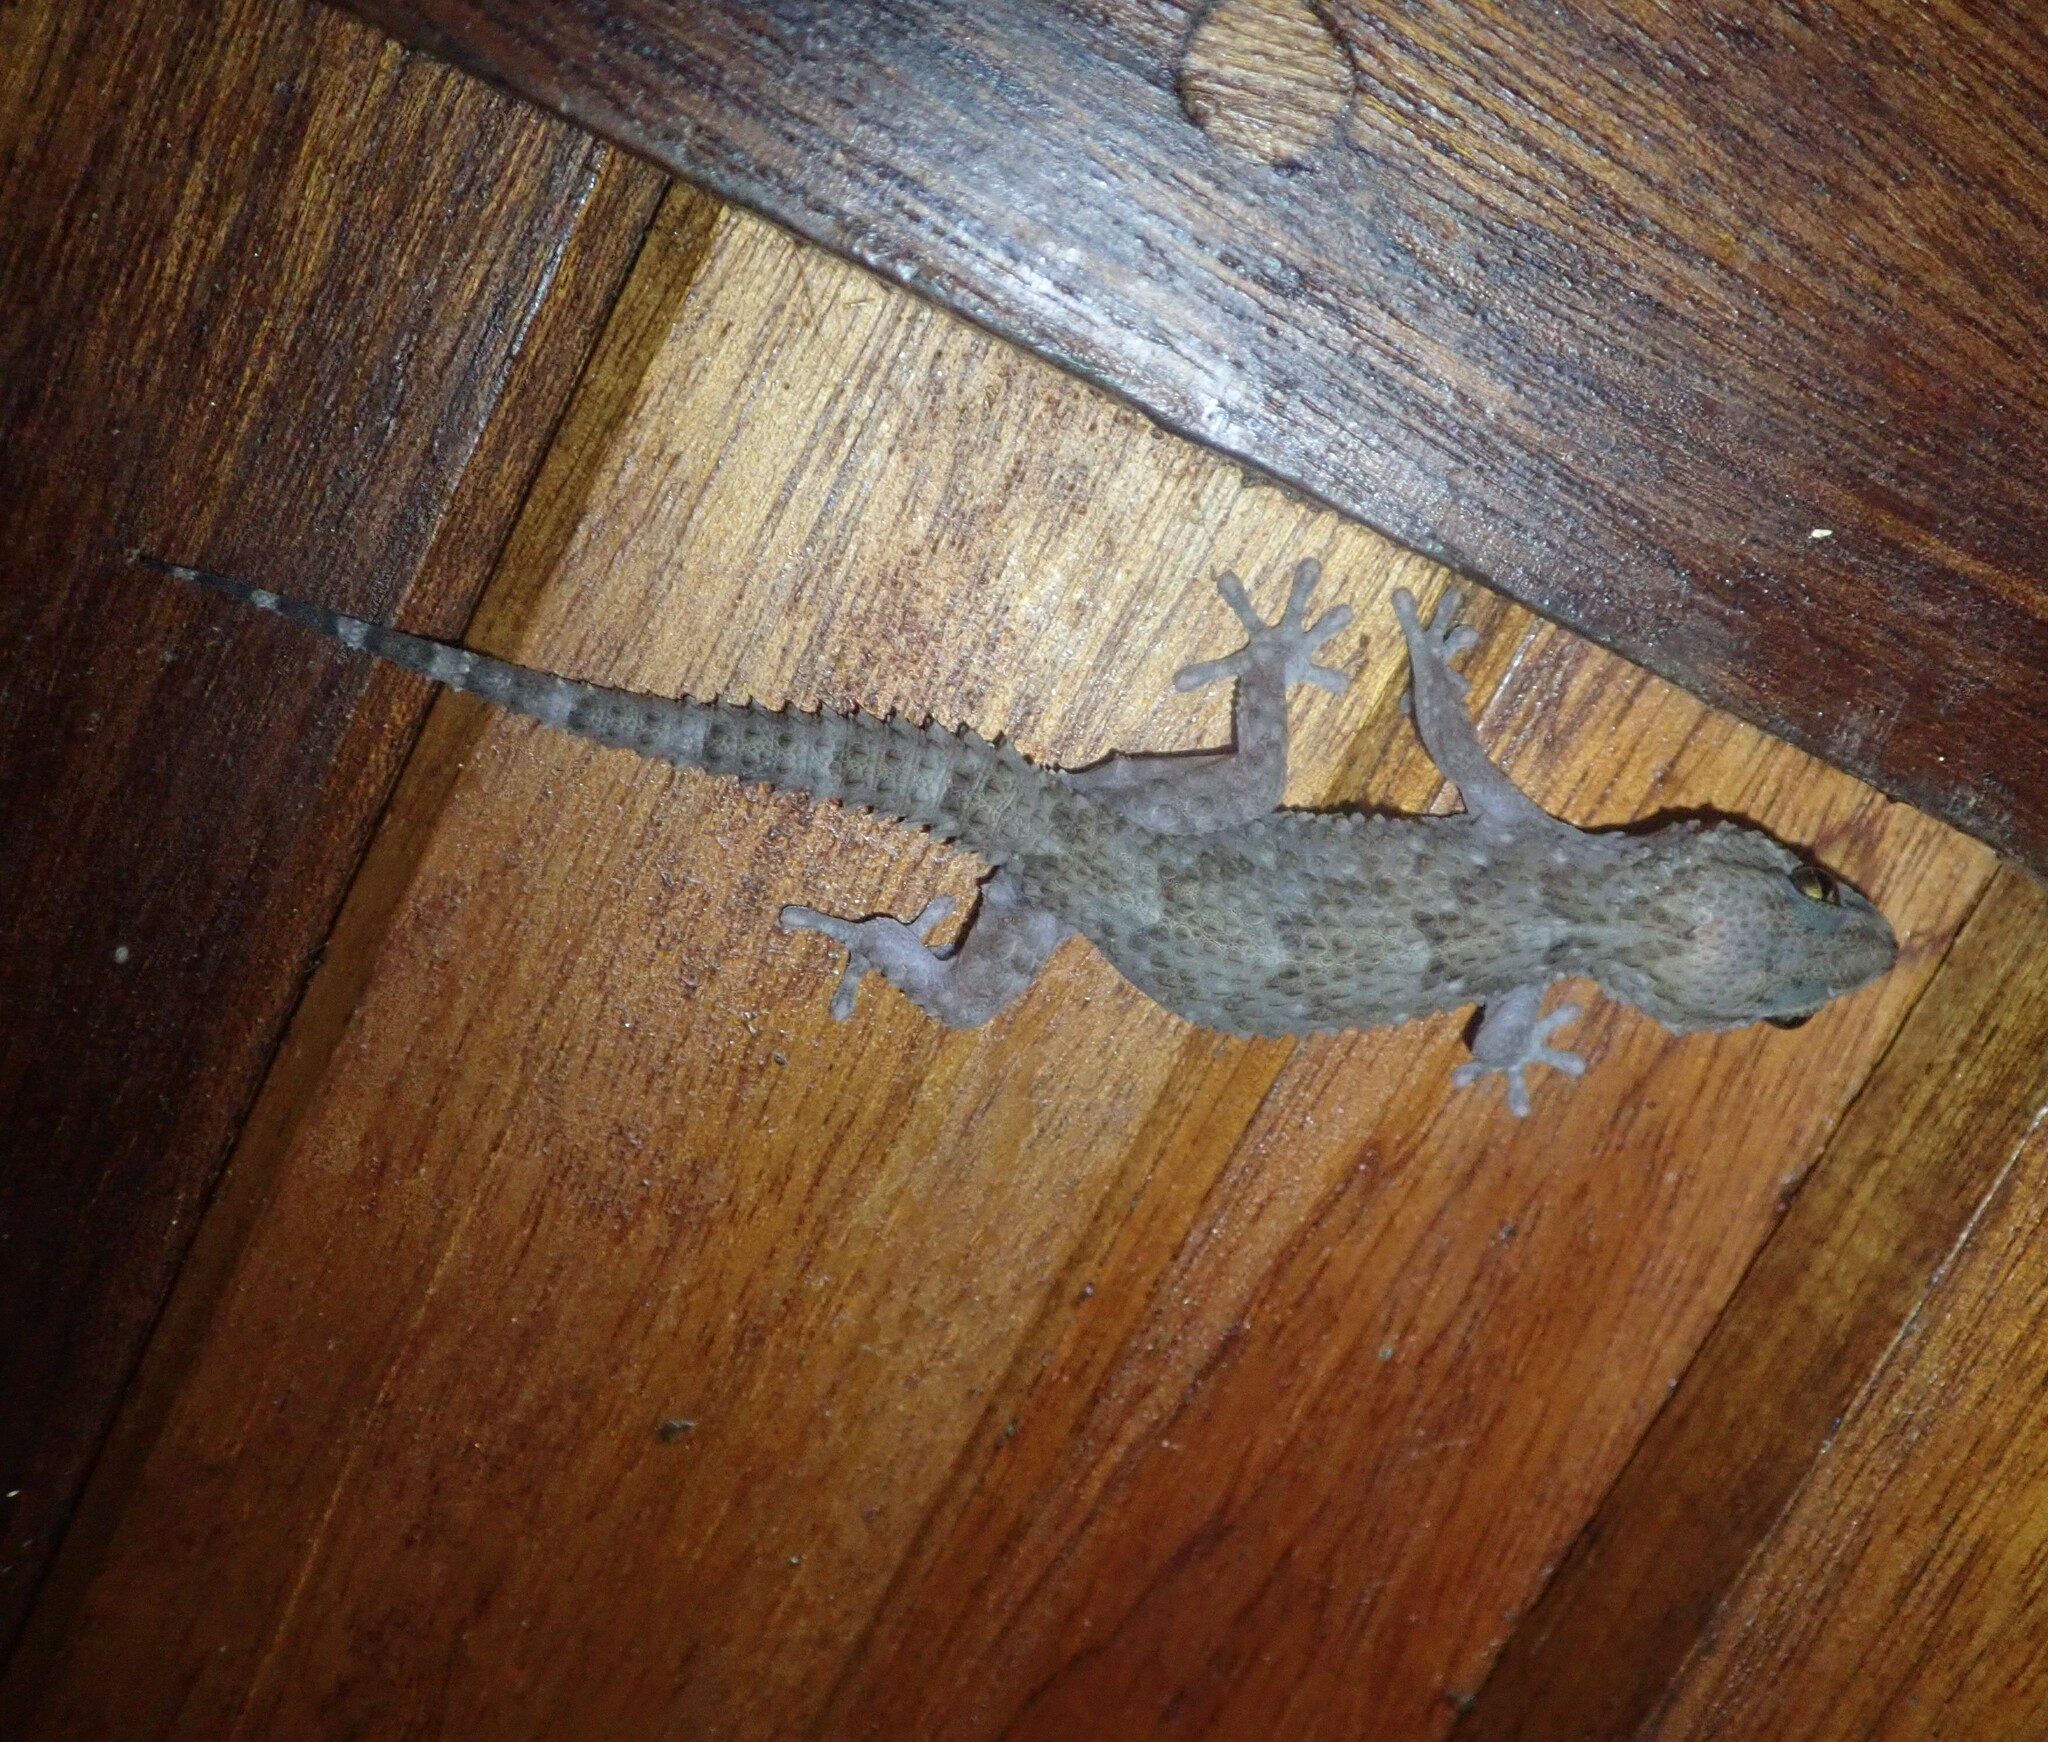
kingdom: Animalia
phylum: Chordata
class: Squamata
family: Gekkonidae
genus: Chondrodactylus
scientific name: Chondrodactylus turneri
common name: Turner’s gecko
